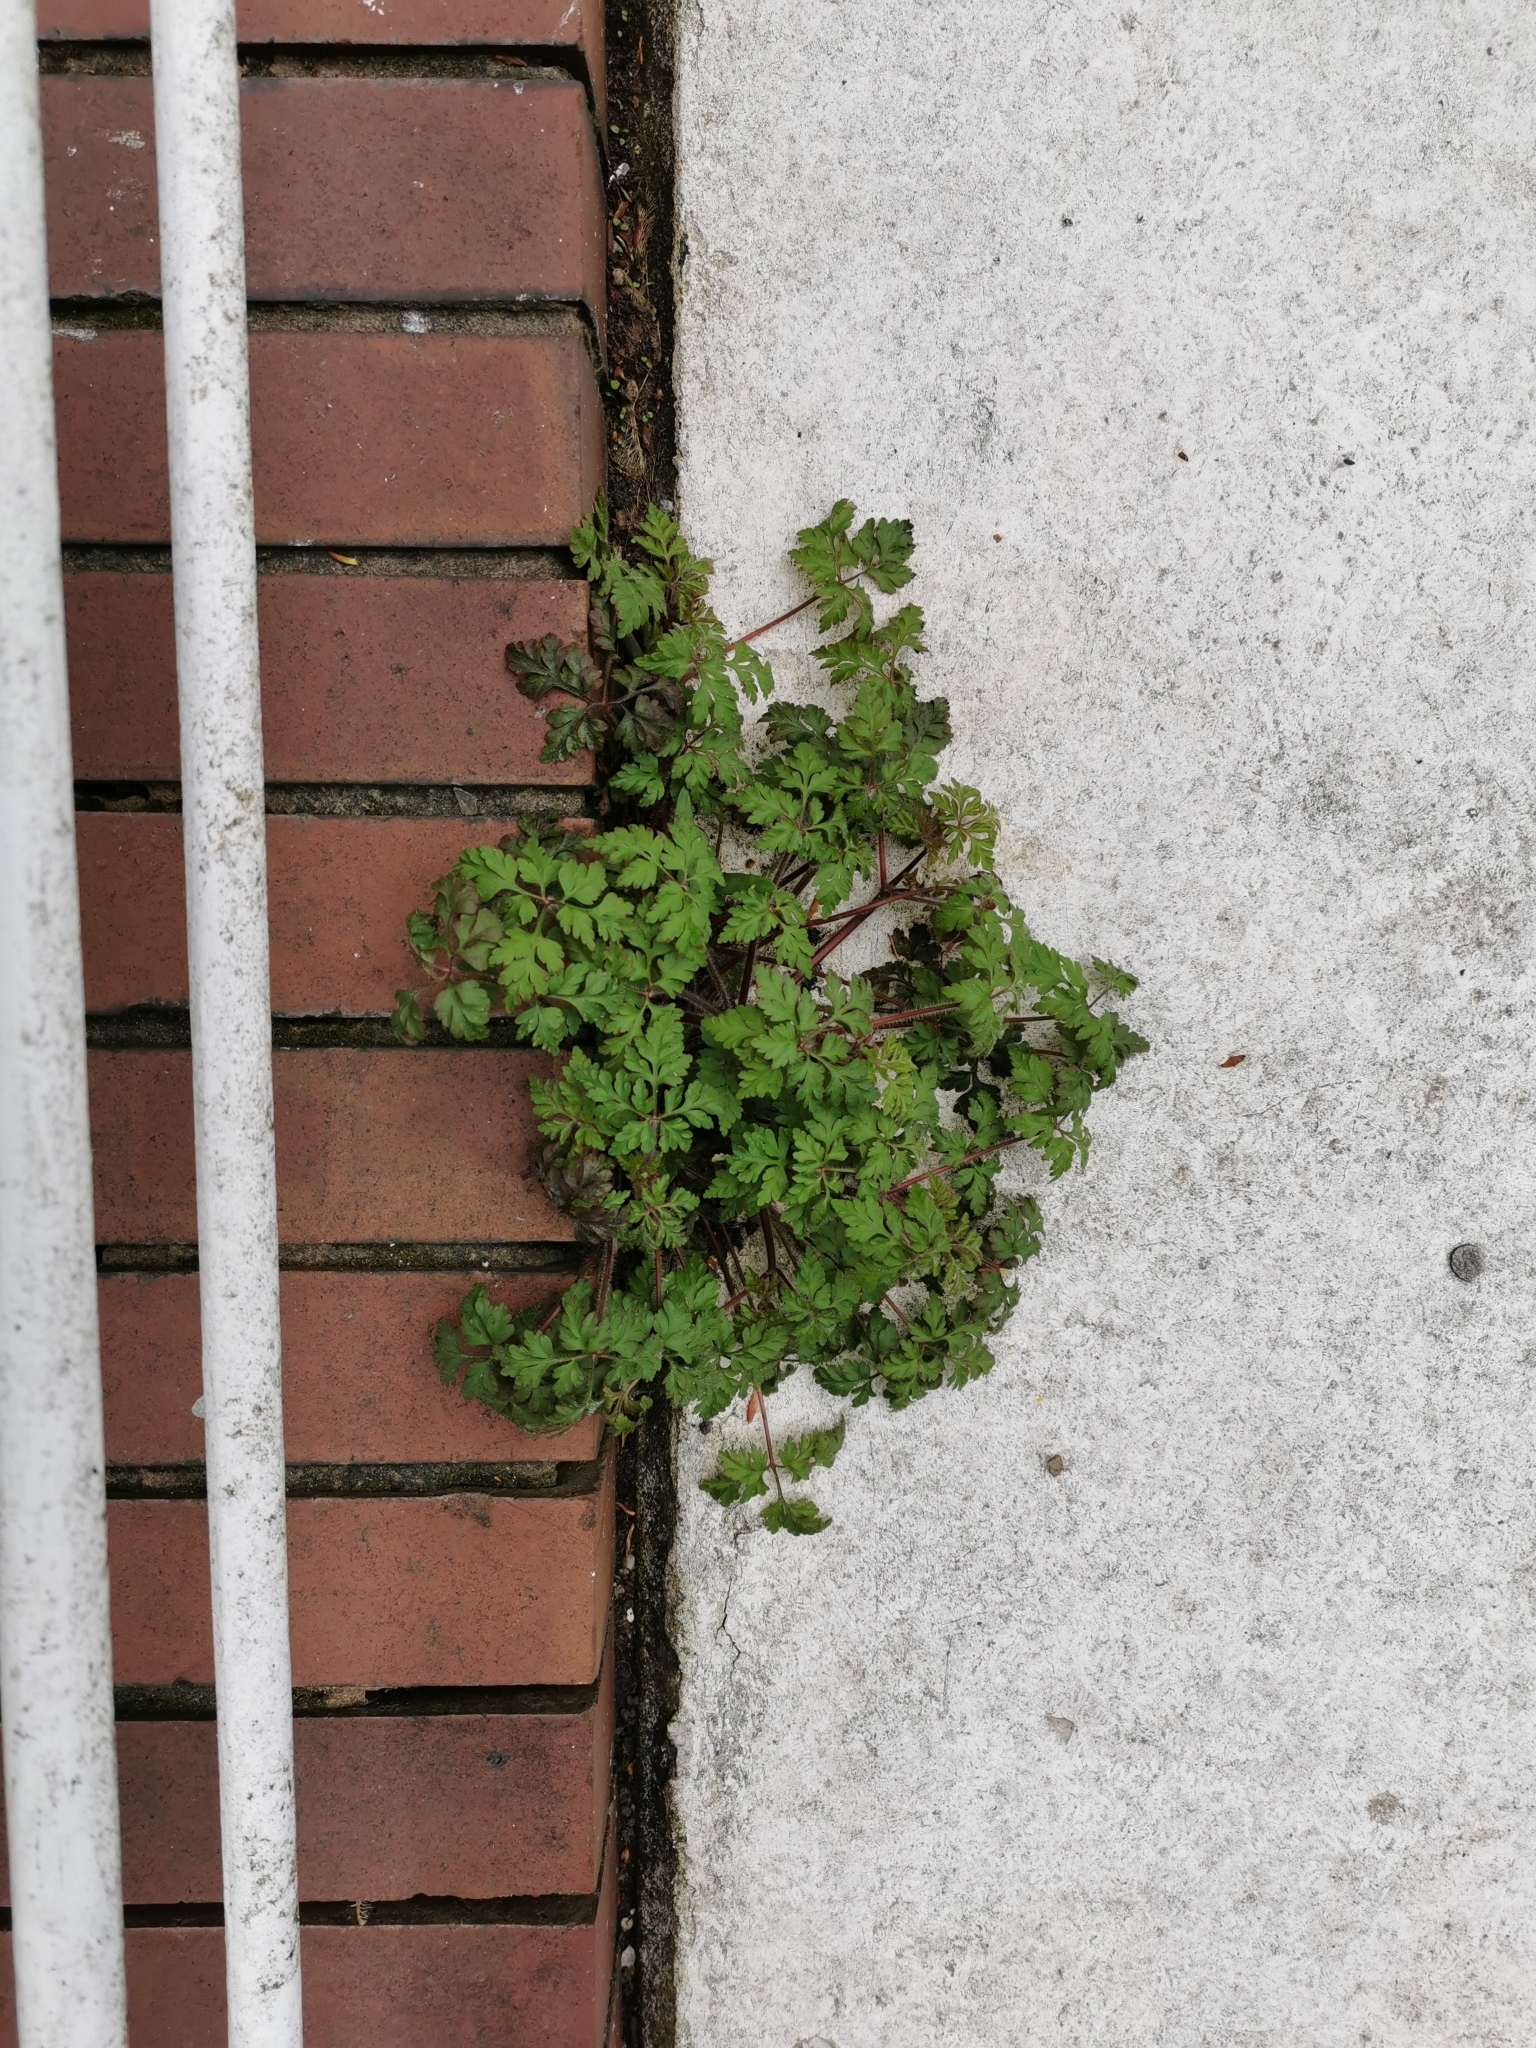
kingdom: Plantae
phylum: Tracheophyta
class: Magnoliopsida
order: Geraniales
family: Geraniaceae
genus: Geranium
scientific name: Geranium robertianum
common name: Herb-robert
